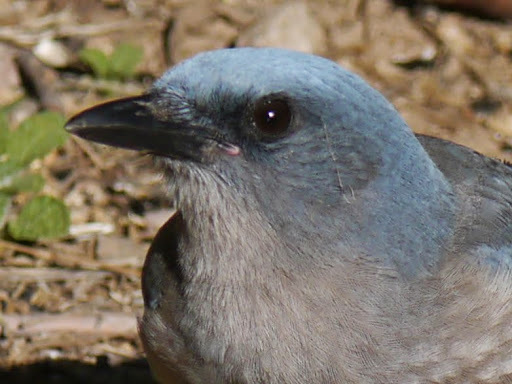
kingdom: Animalia
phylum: Chordata
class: Aves
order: Passeriformes
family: Corvidae
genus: Aphelocoma
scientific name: Aphelocoma wollweberi
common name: Mexican jay
